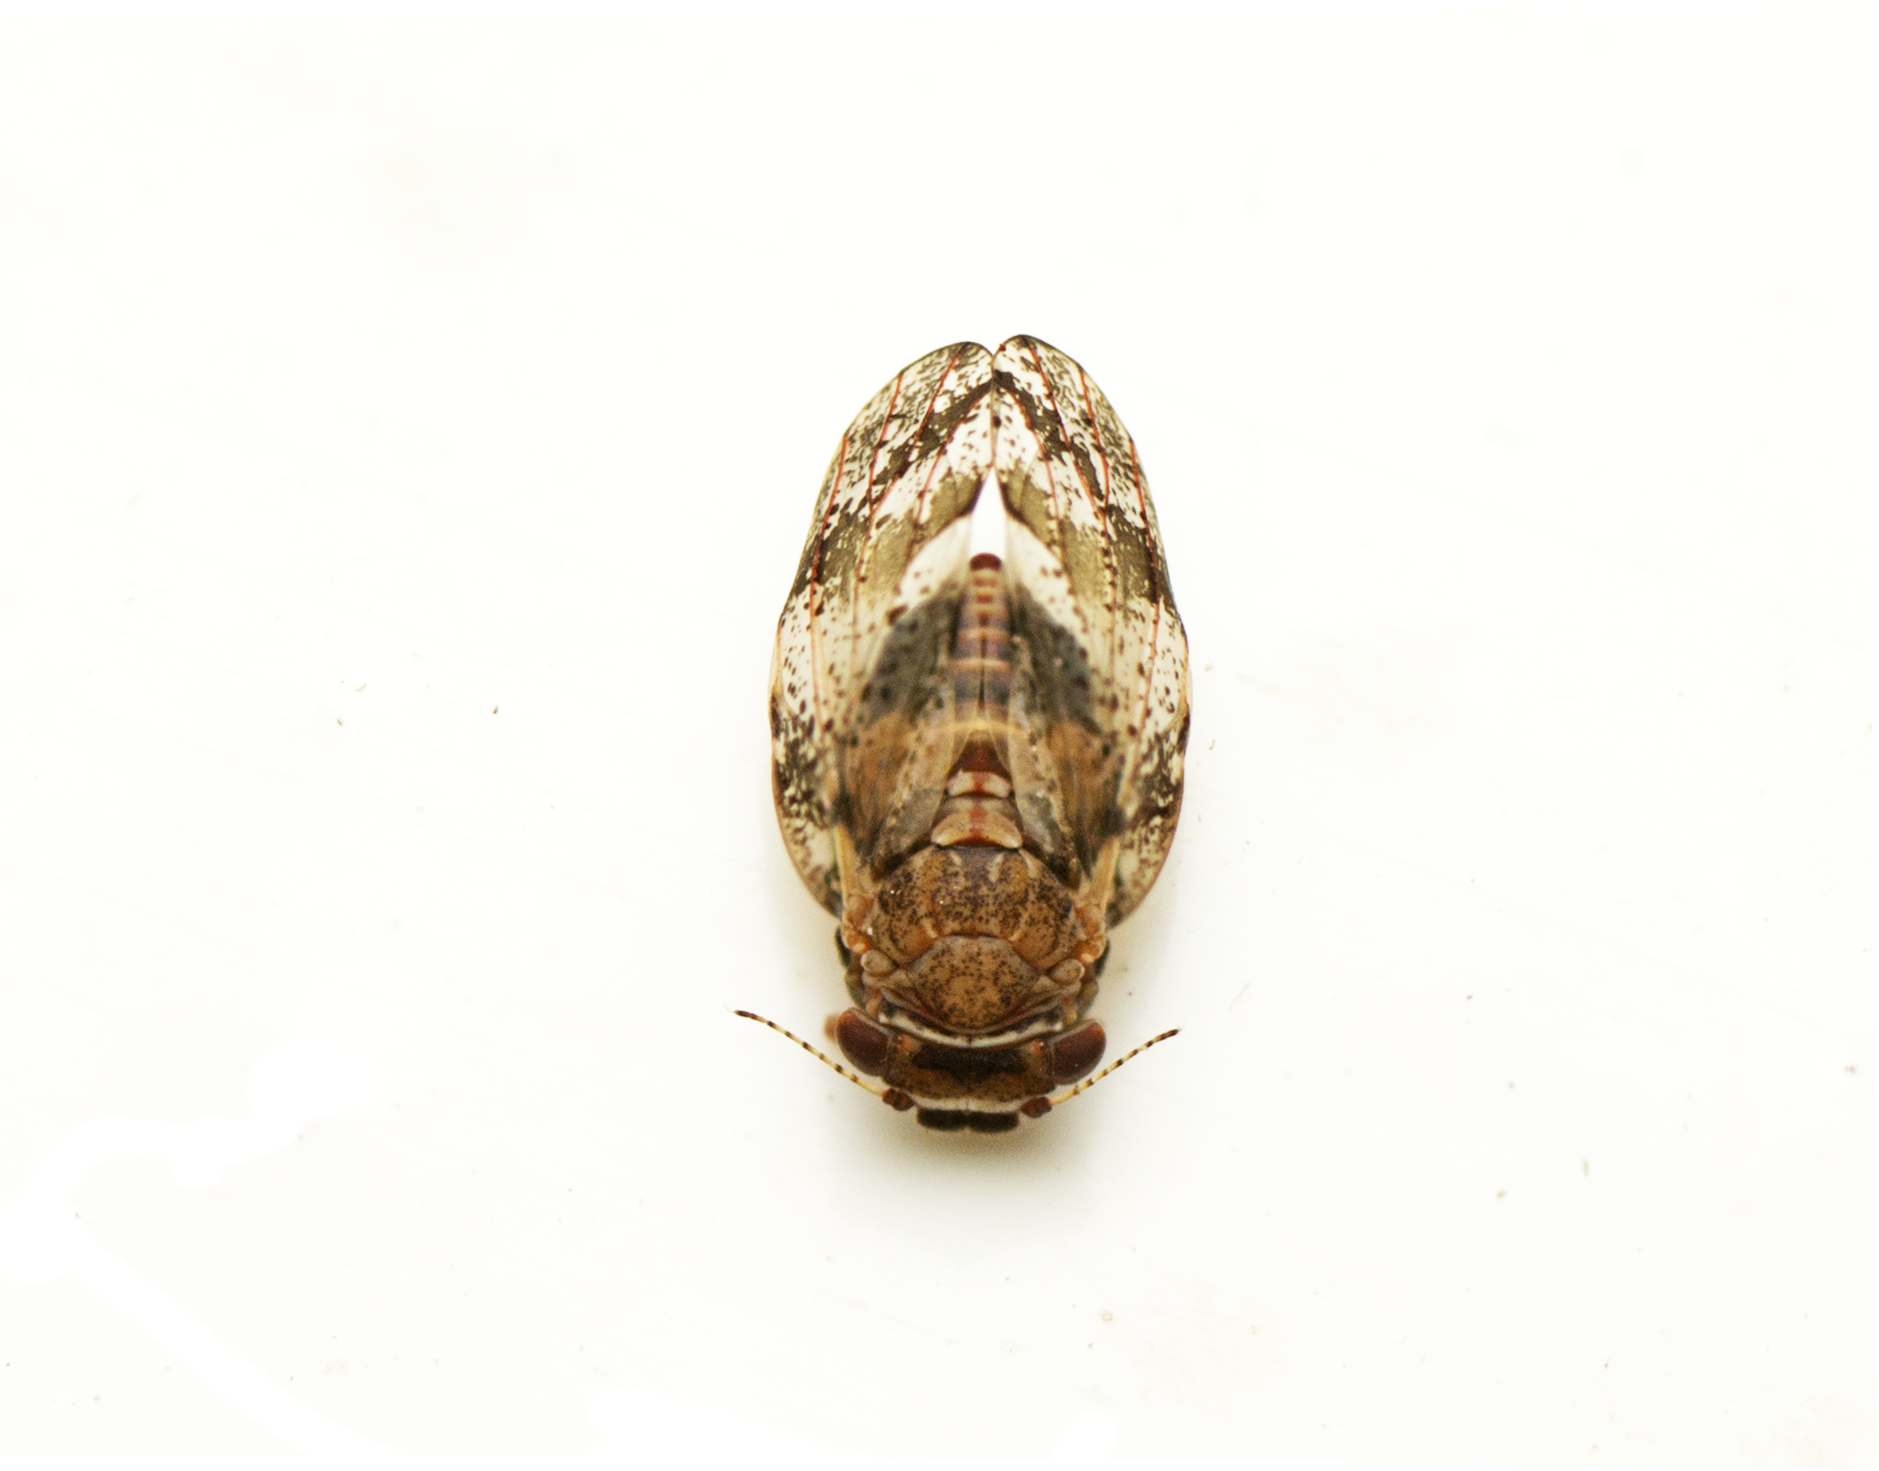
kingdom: Animalia
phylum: Arthropoda
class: Insecta
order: Hemiptera
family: Aphalaridae
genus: Dasypsylla
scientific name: Dasypsylla brunnea
